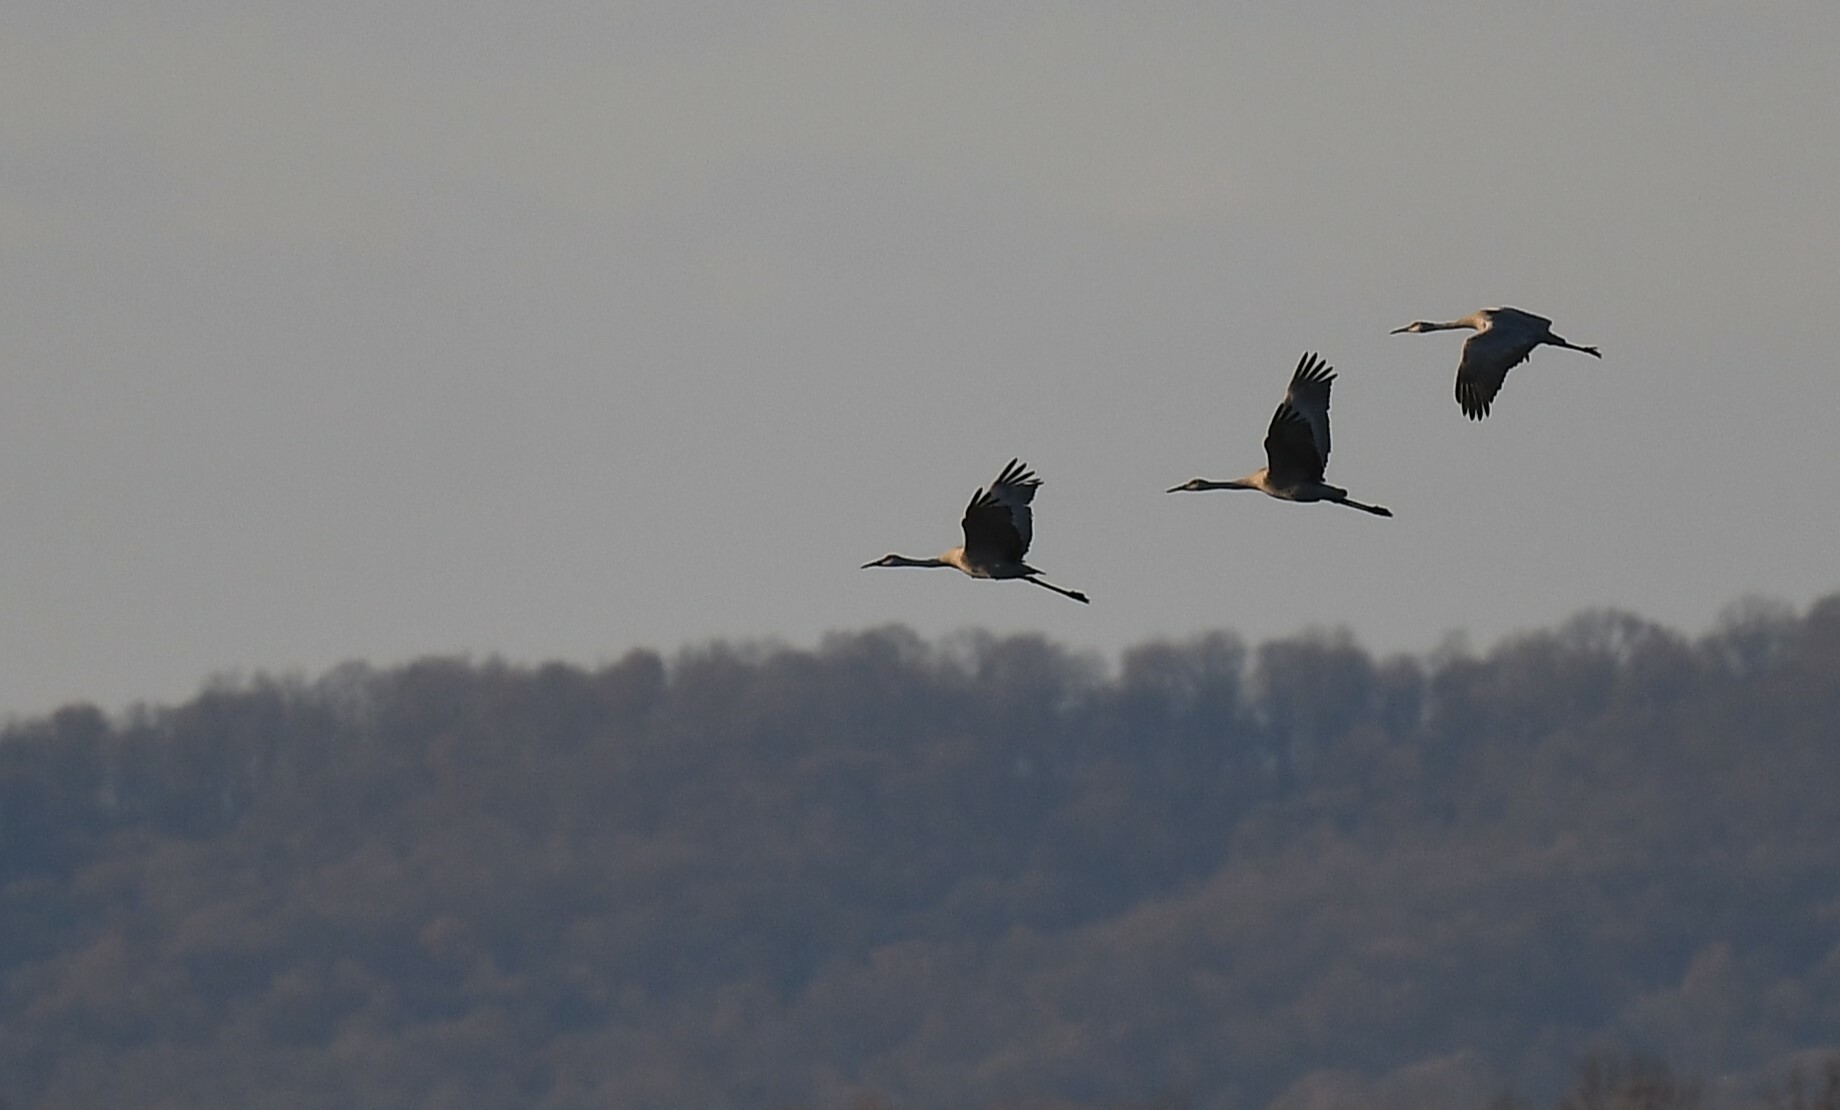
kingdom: Animalia
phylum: Chordata
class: Aves
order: Gruiformes
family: Gruidae
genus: Grus
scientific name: Grus canadensis
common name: Sandhill crane
